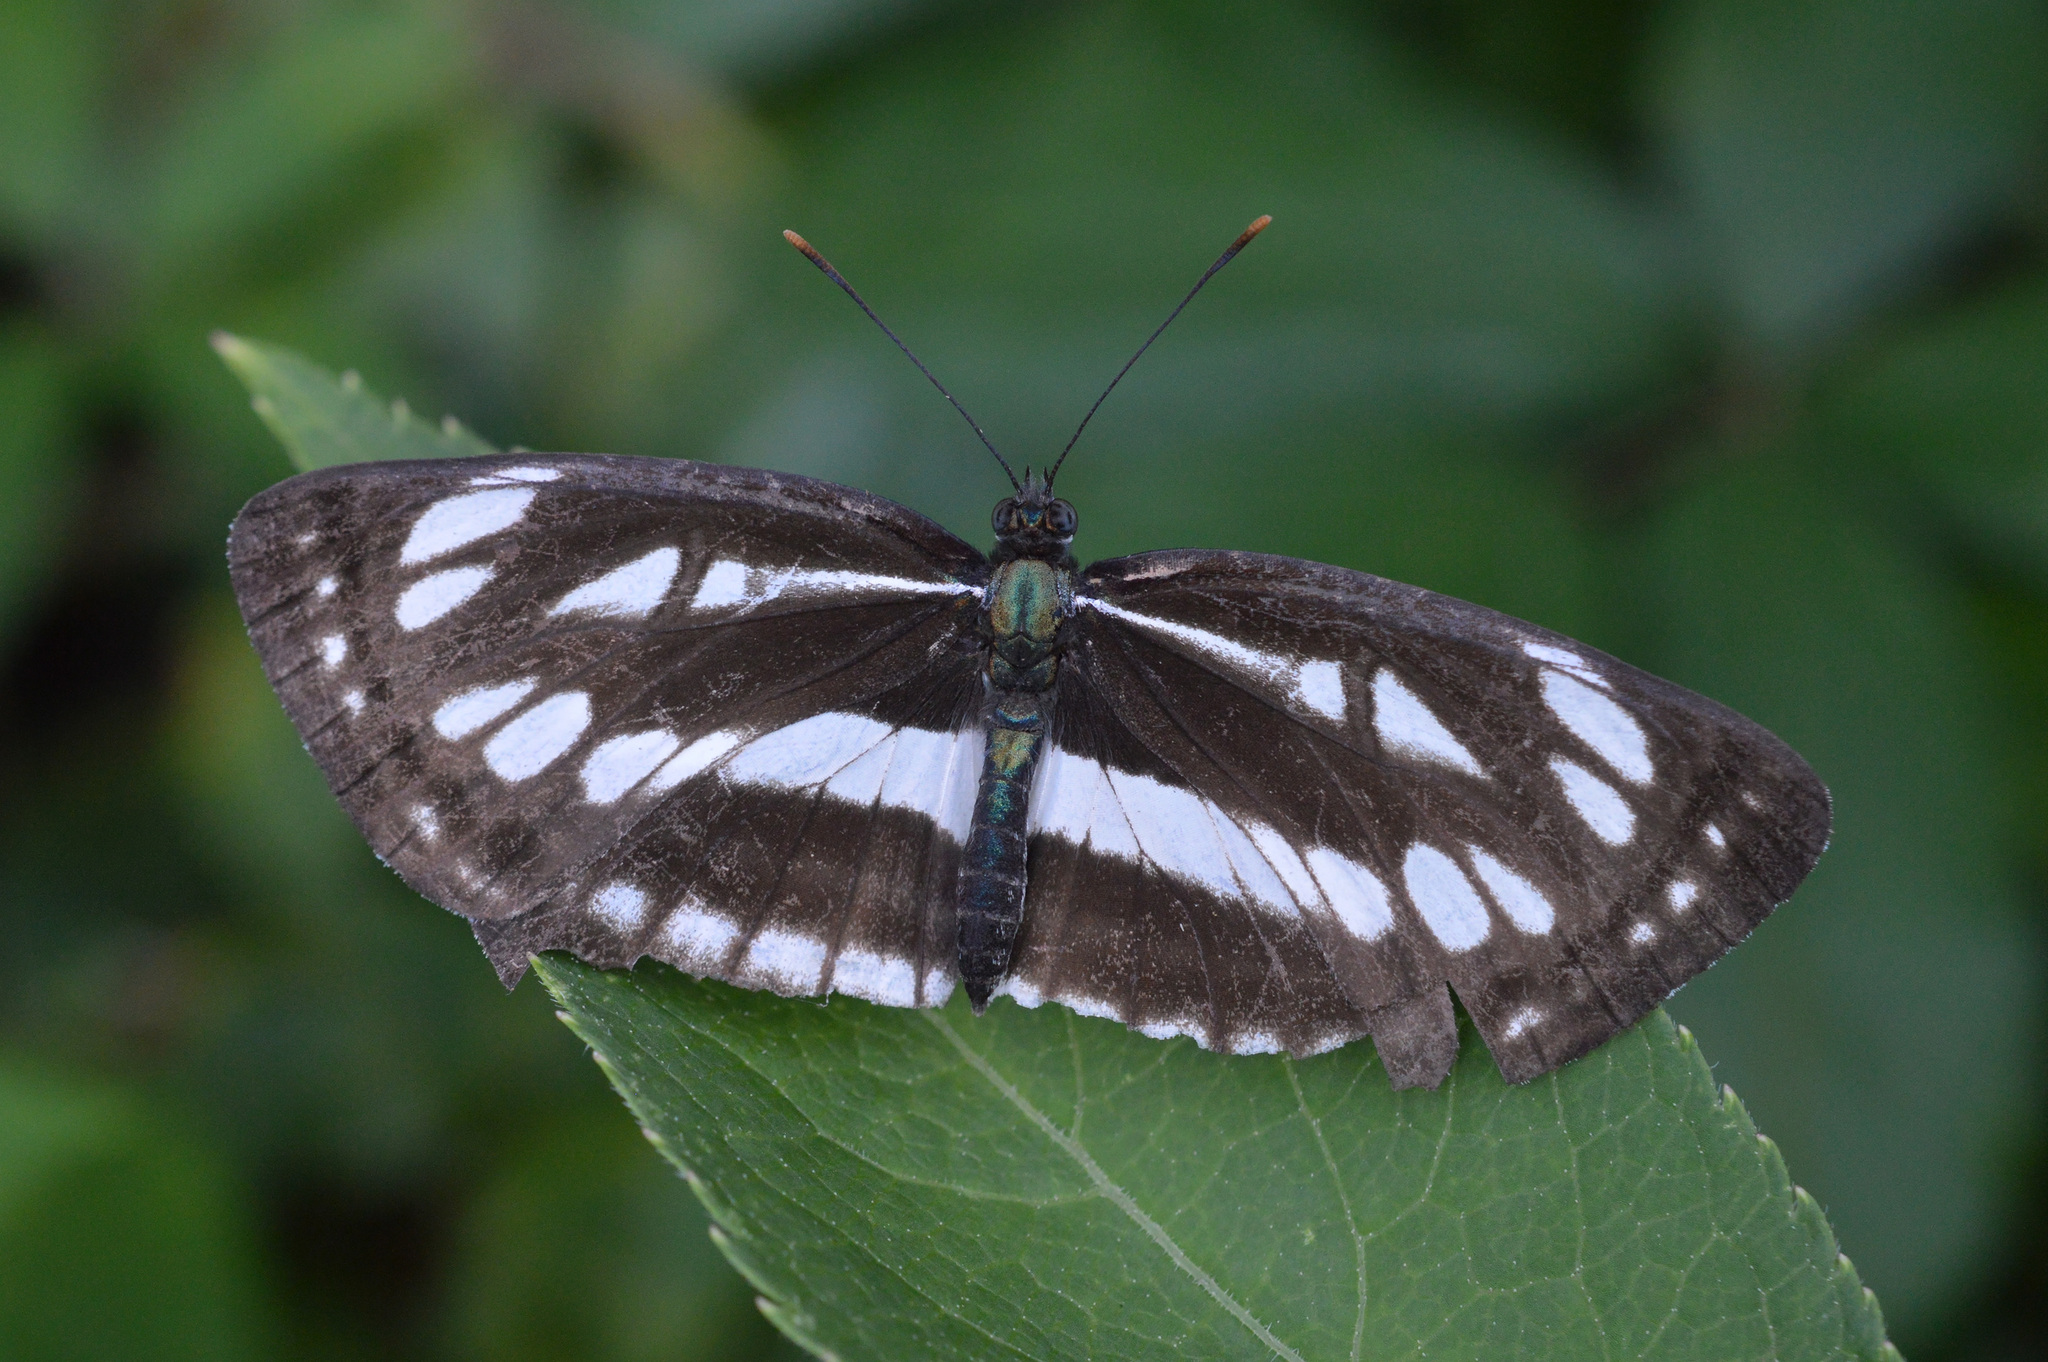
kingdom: Animalia
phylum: Arthropoda
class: Insecta
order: Lepidoptera
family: Nymphalidae
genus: Neptis
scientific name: Neptis sappho
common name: Common glider
